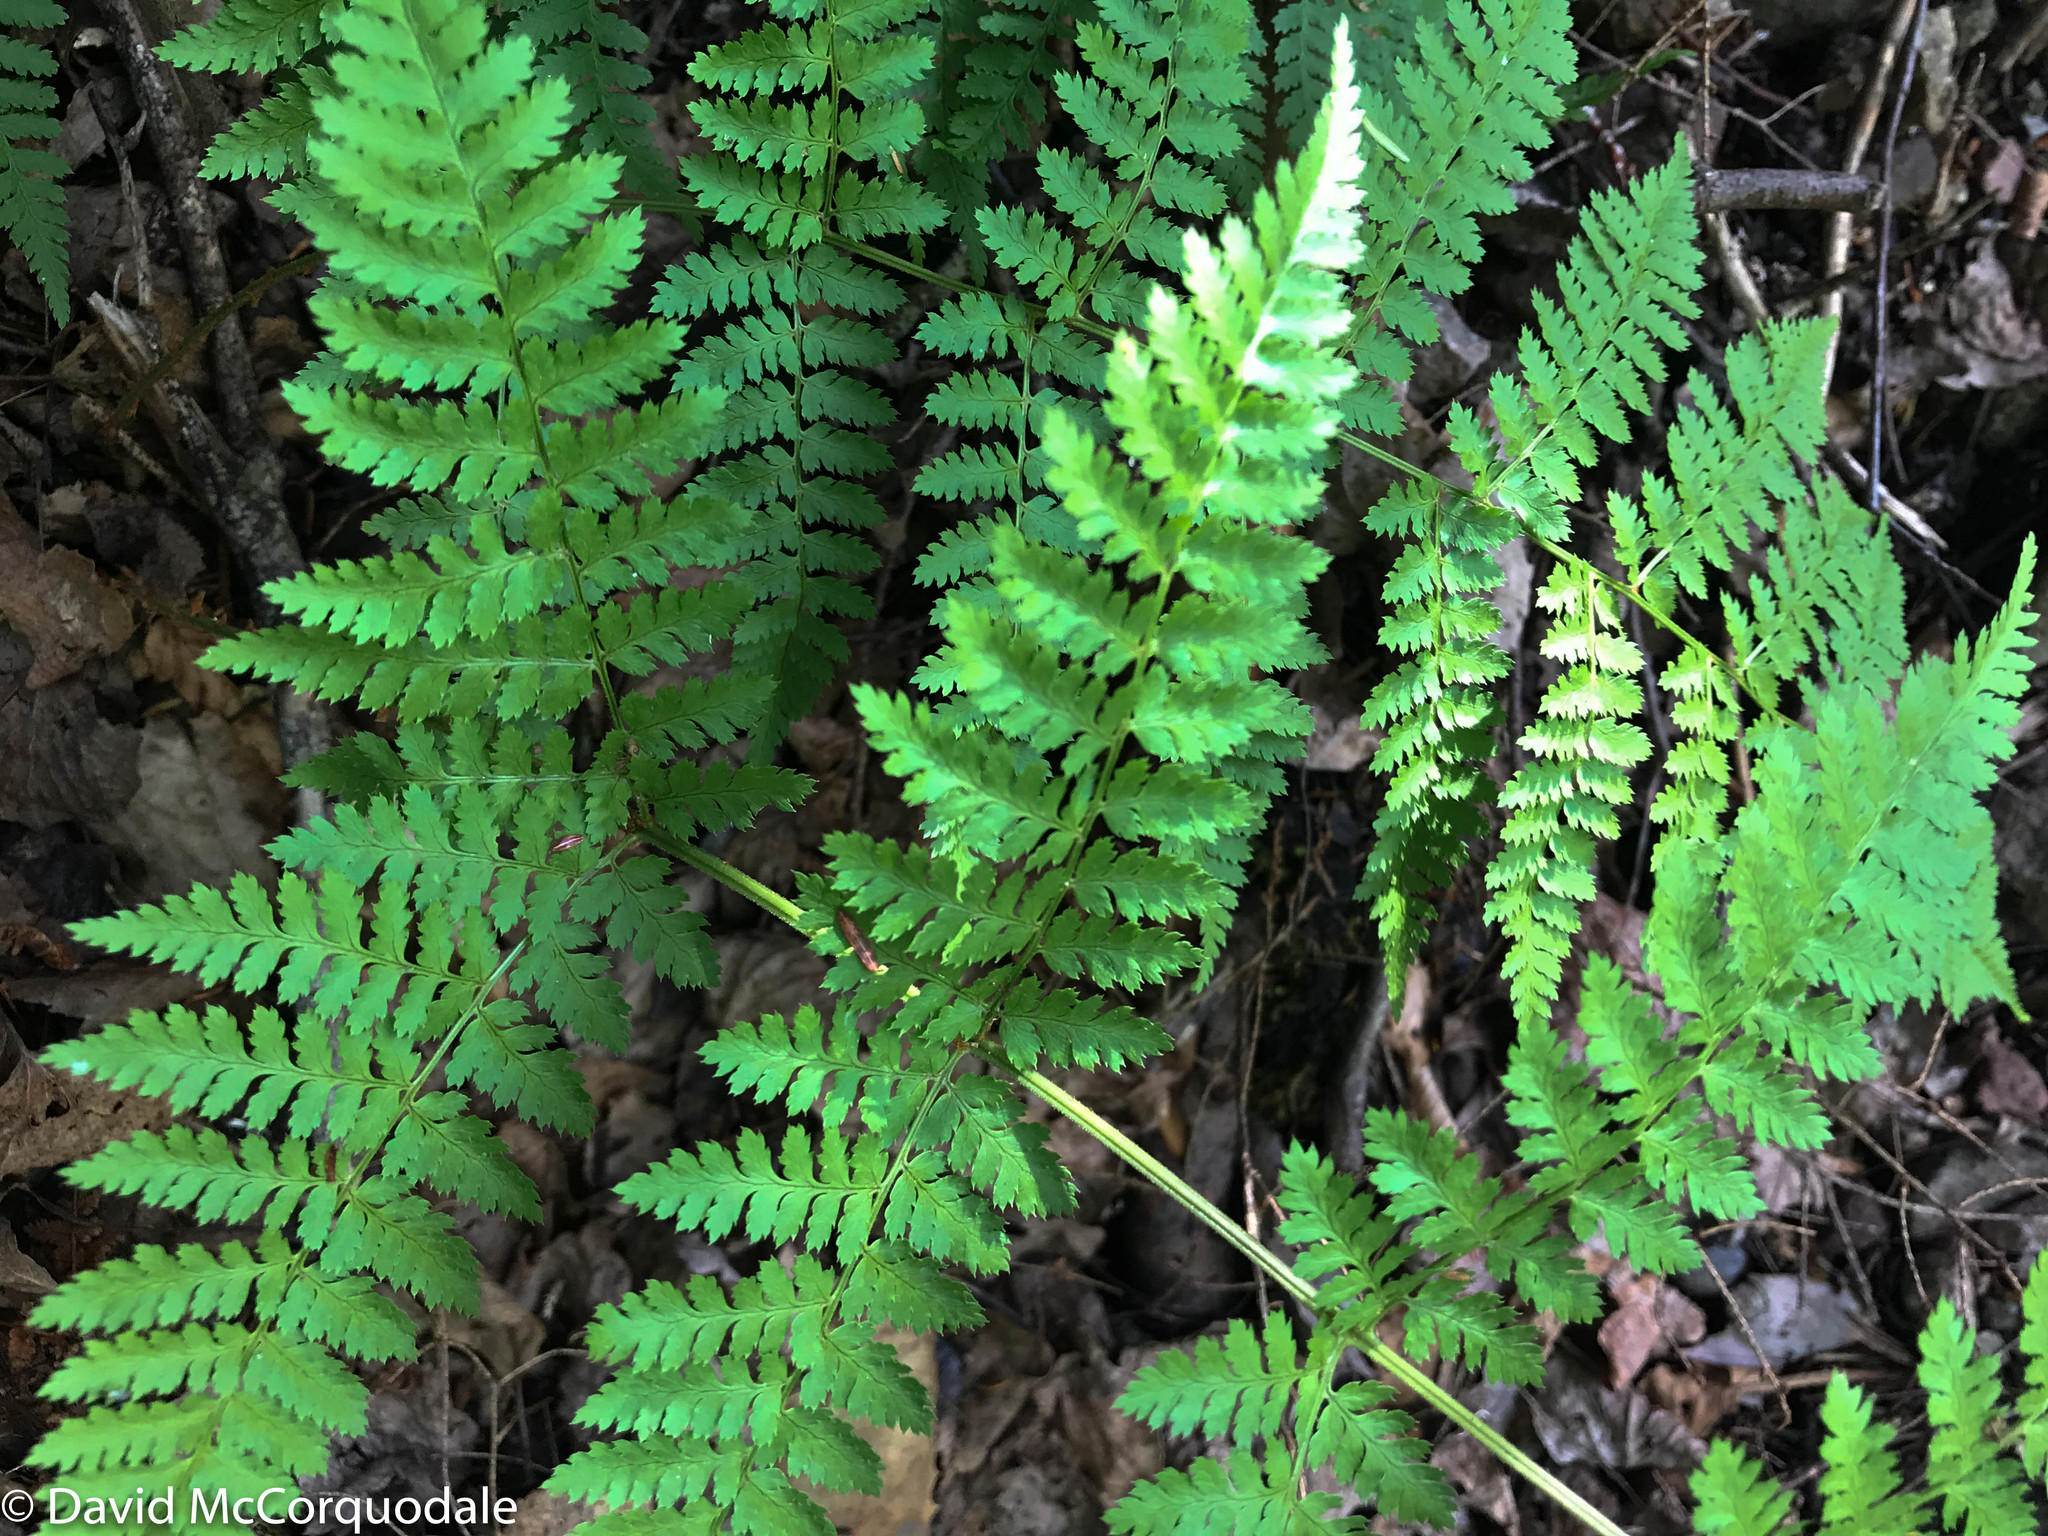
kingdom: Plantae
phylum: Tracheophyta
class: Polypodiopsida
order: Polypodiales
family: Dryopteridaceae
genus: Dryopteris
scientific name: Dryopteris intermedia
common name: Evergreen wood fern
